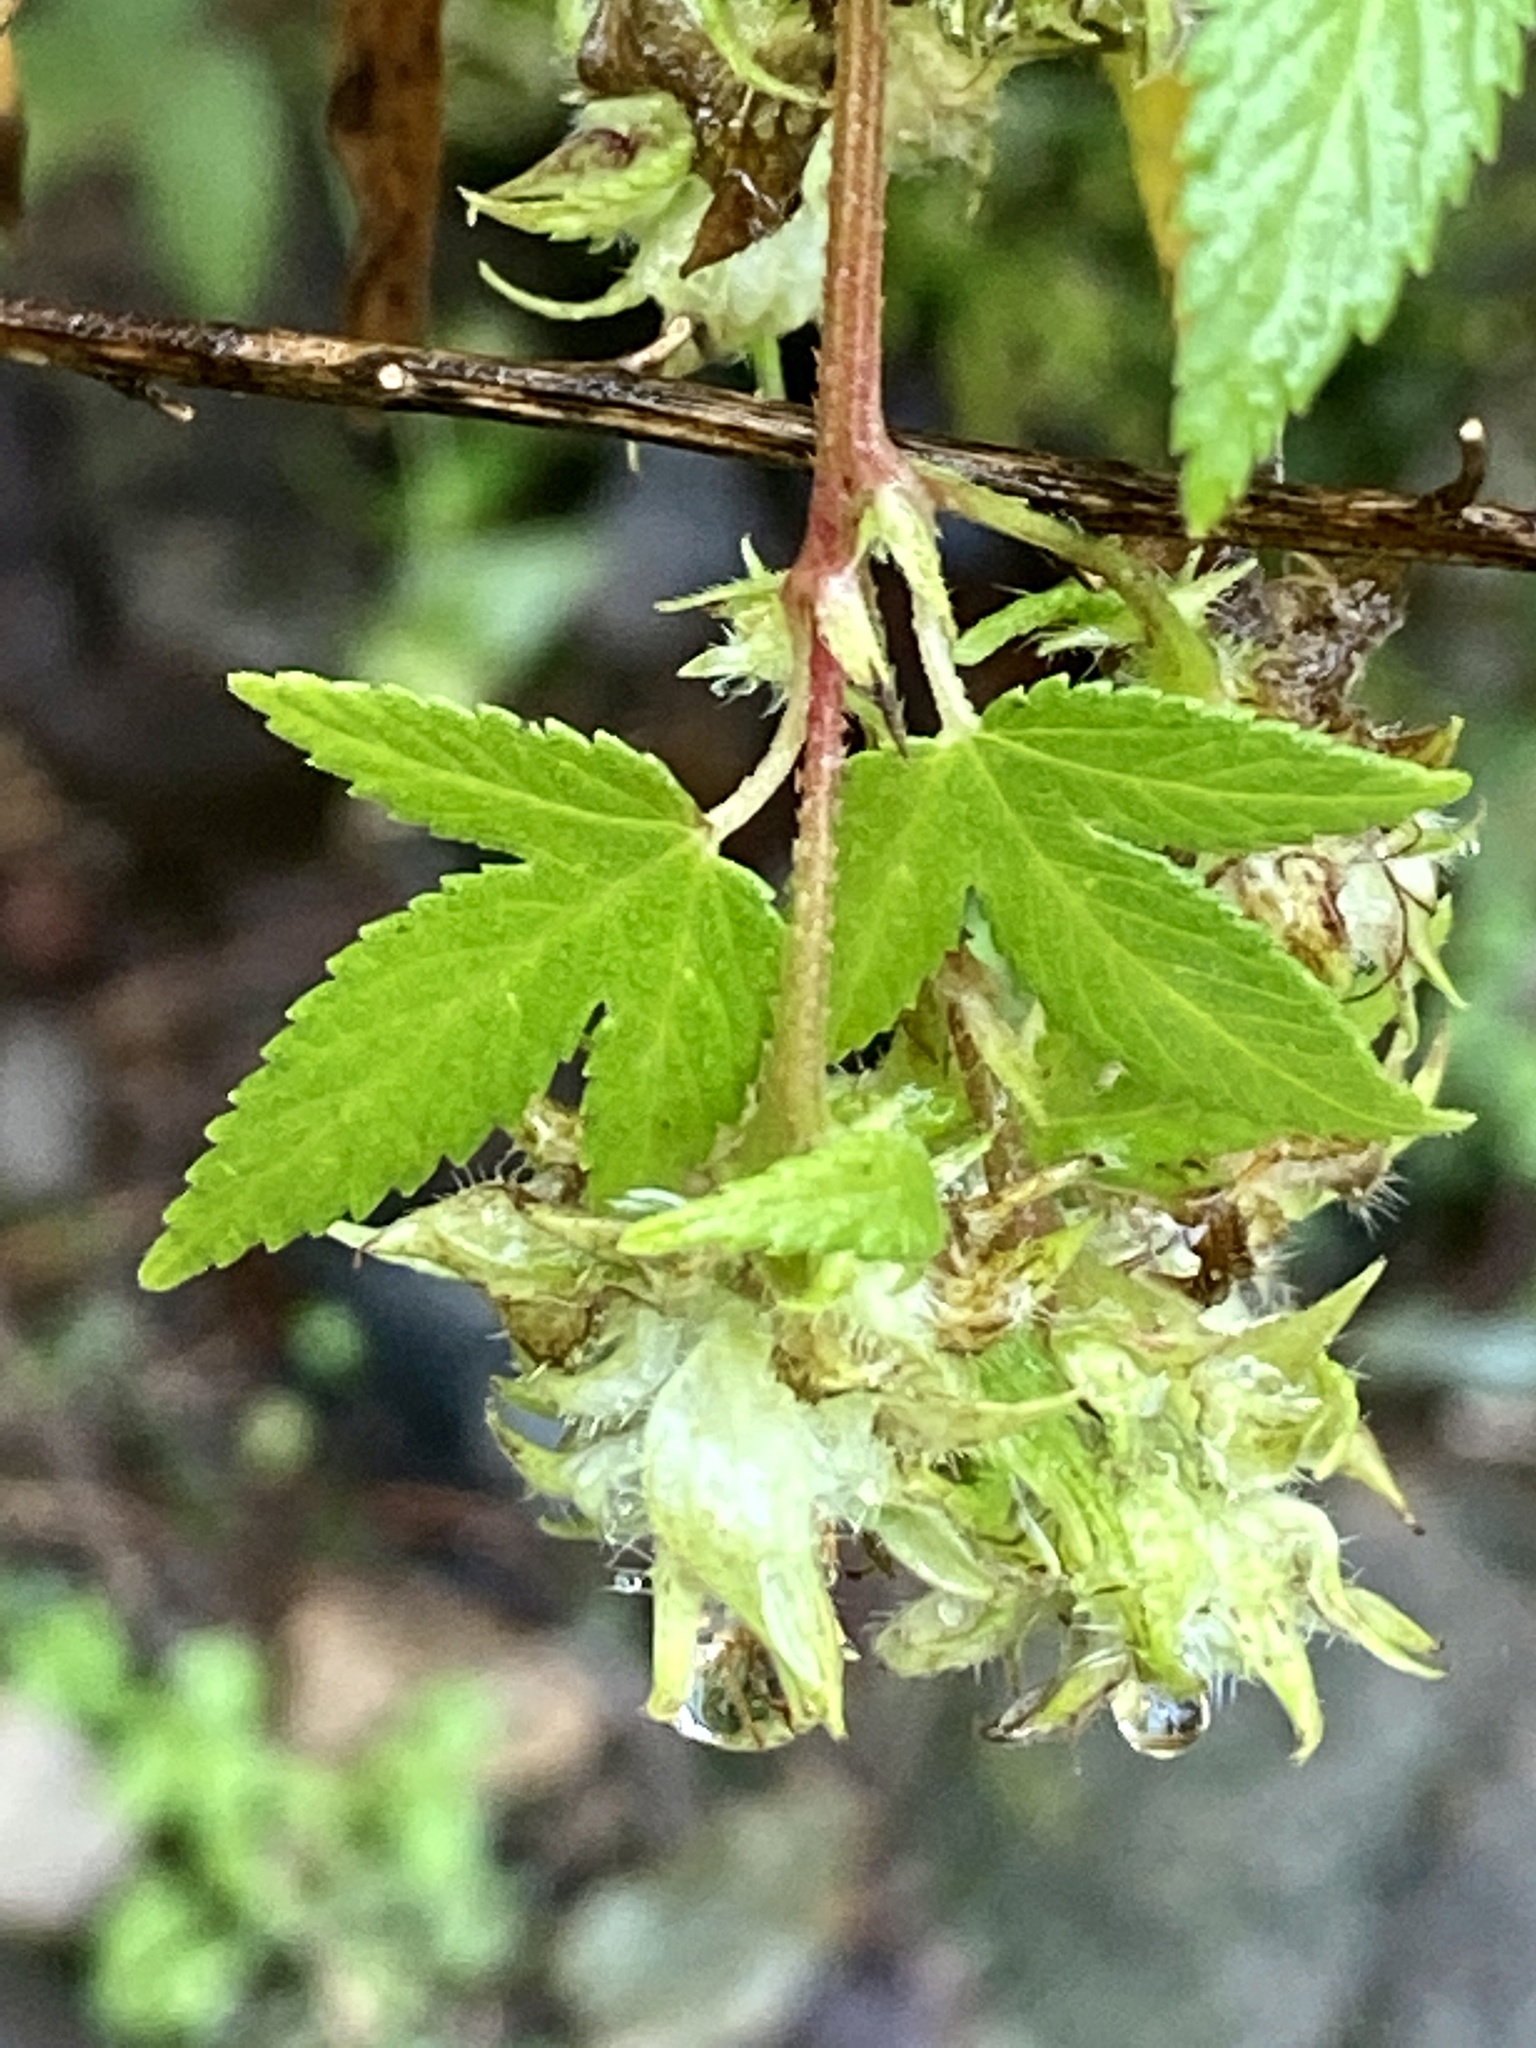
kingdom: Plantae
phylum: Tracheophyta
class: Magnoliopsida
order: Rosales
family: Cannabaceae
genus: Humulus
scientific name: Humulus scandens
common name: Japanese hop
